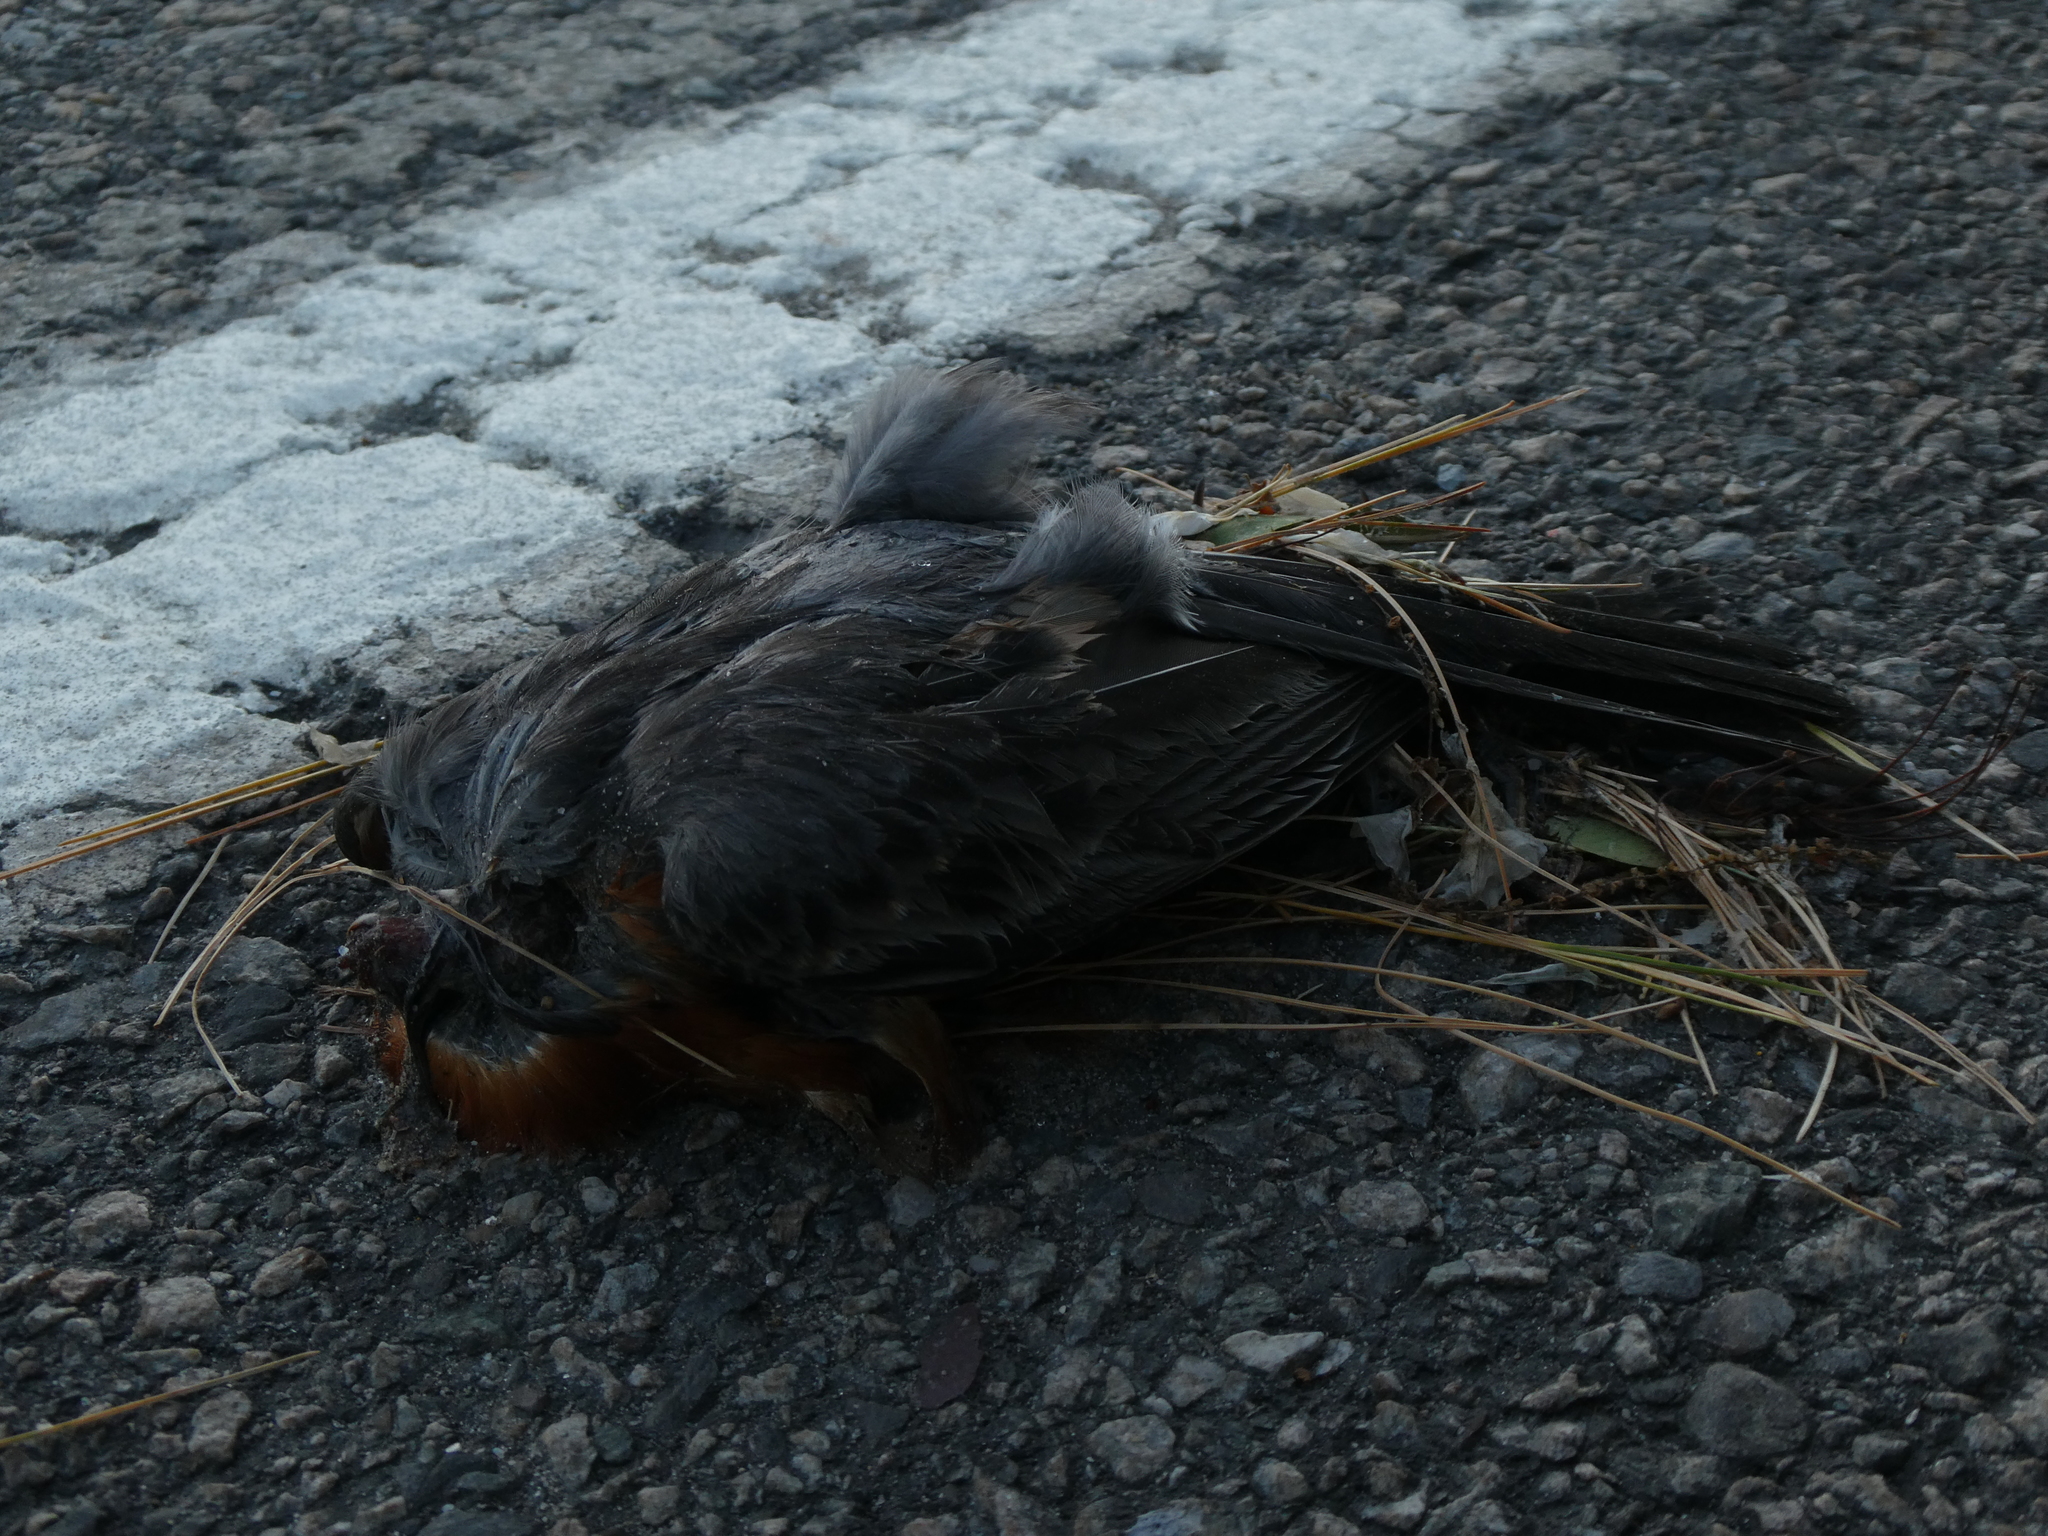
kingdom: Animalia
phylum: Chordata
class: Aves
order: Passeriformes
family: Turdidae
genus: Turdus
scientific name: Turdus migratorius
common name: American robin
